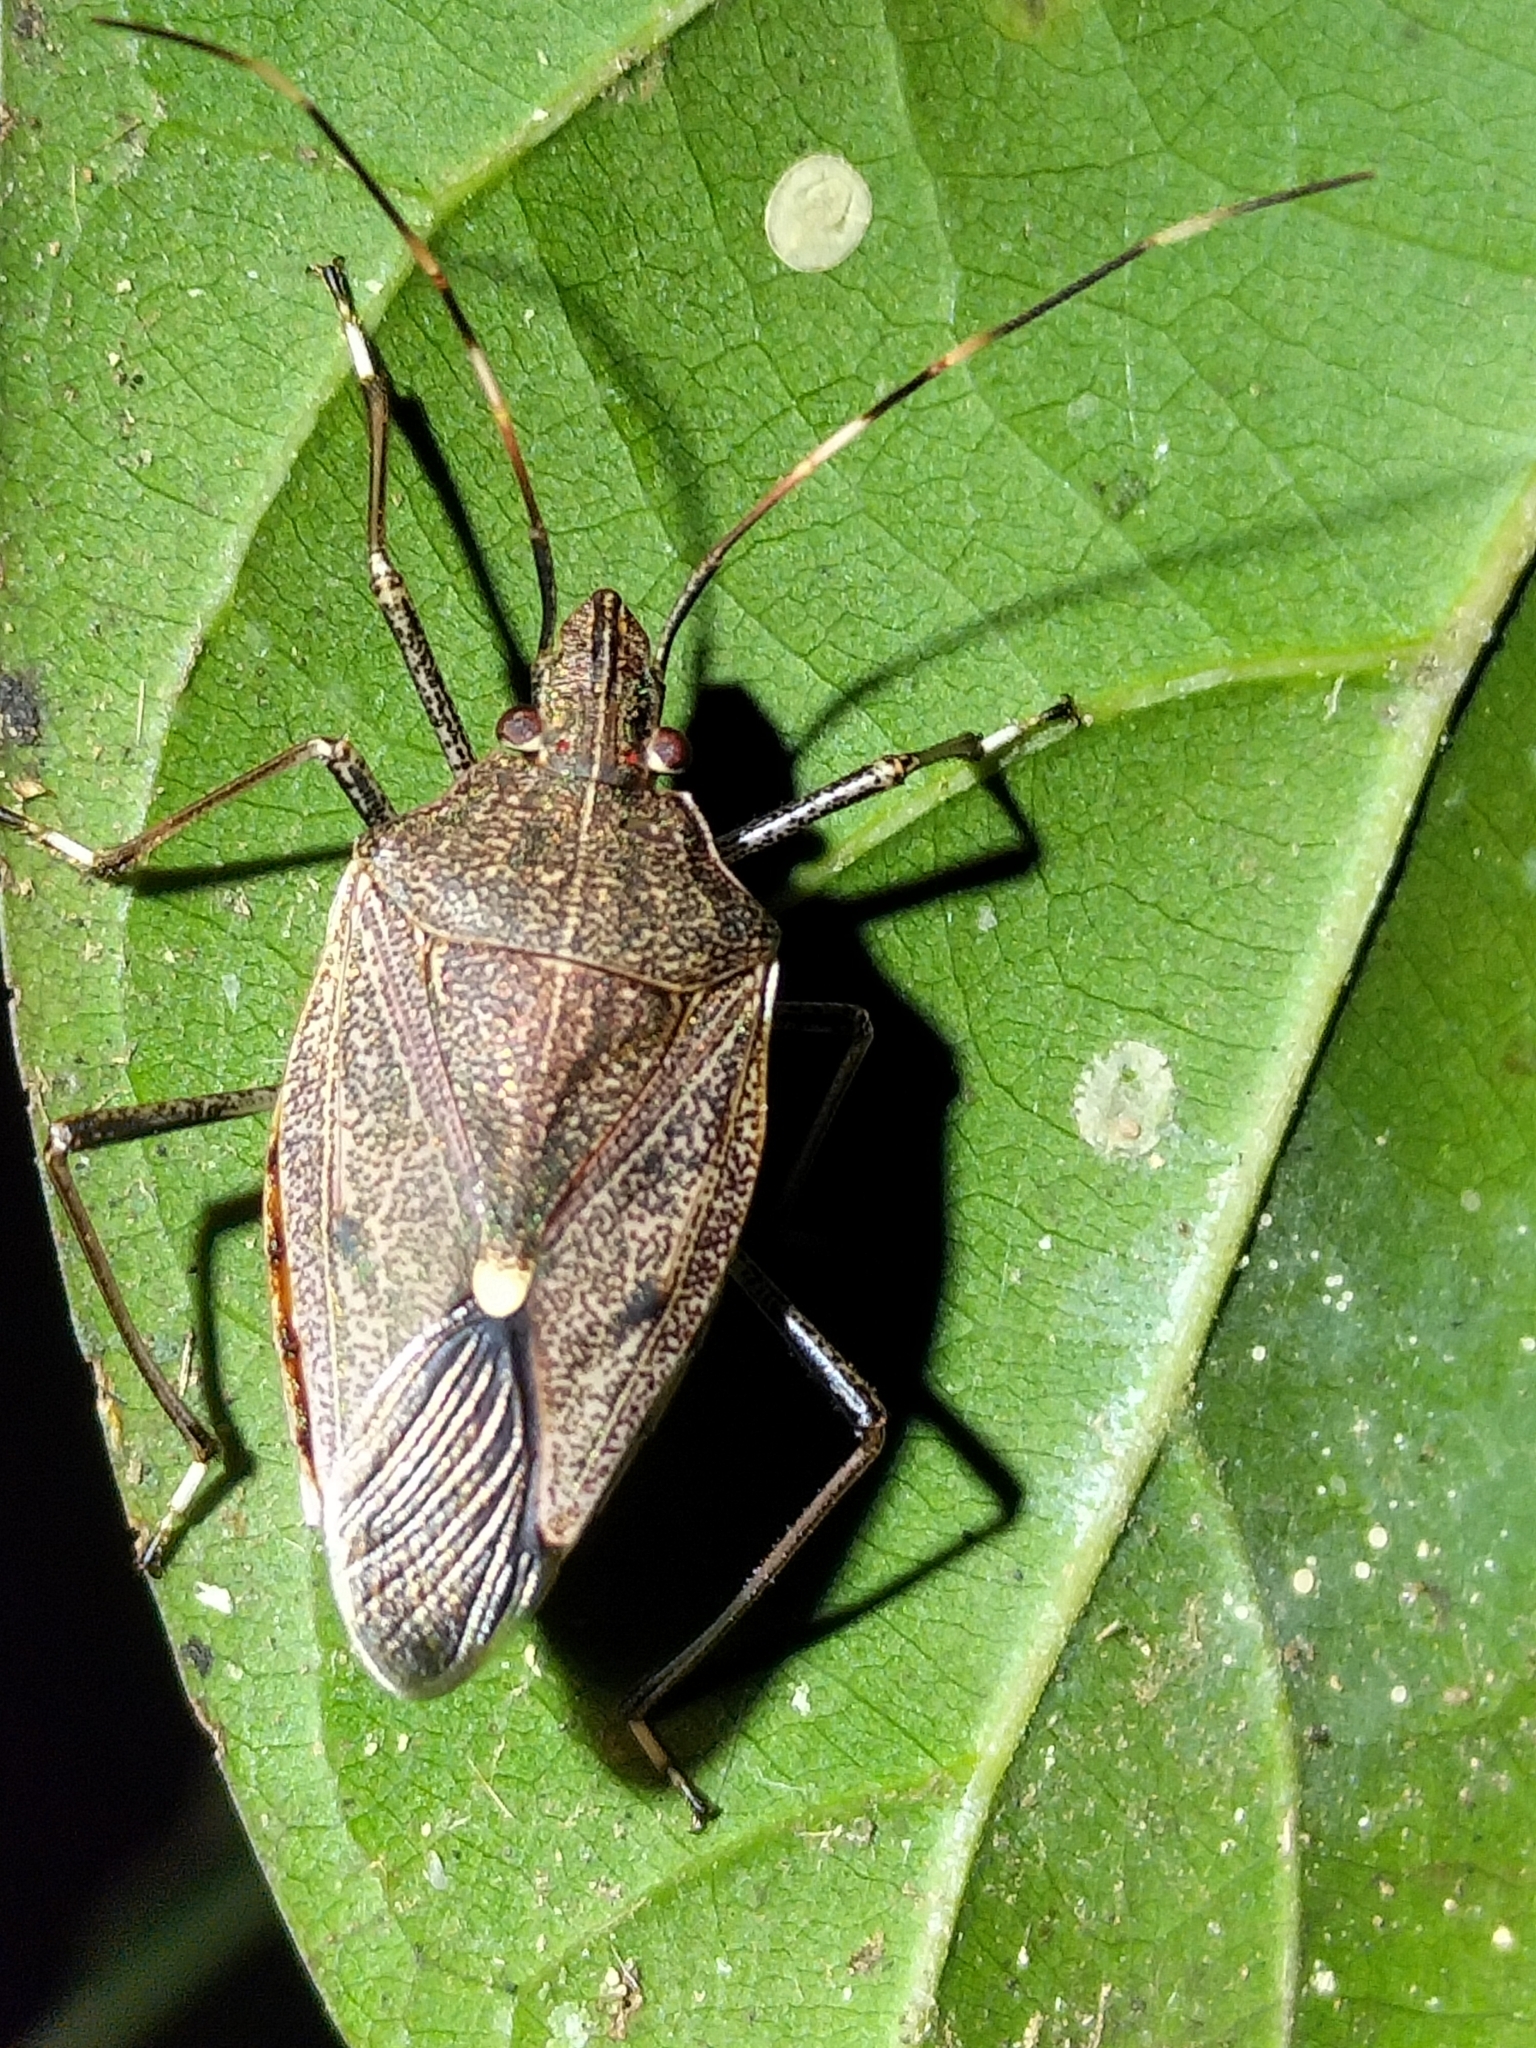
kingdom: Animalia
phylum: Arthropoda
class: Insecta
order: Hemiptera
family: Pentatomidae
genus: Poecilometis
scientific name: Poecilometis
